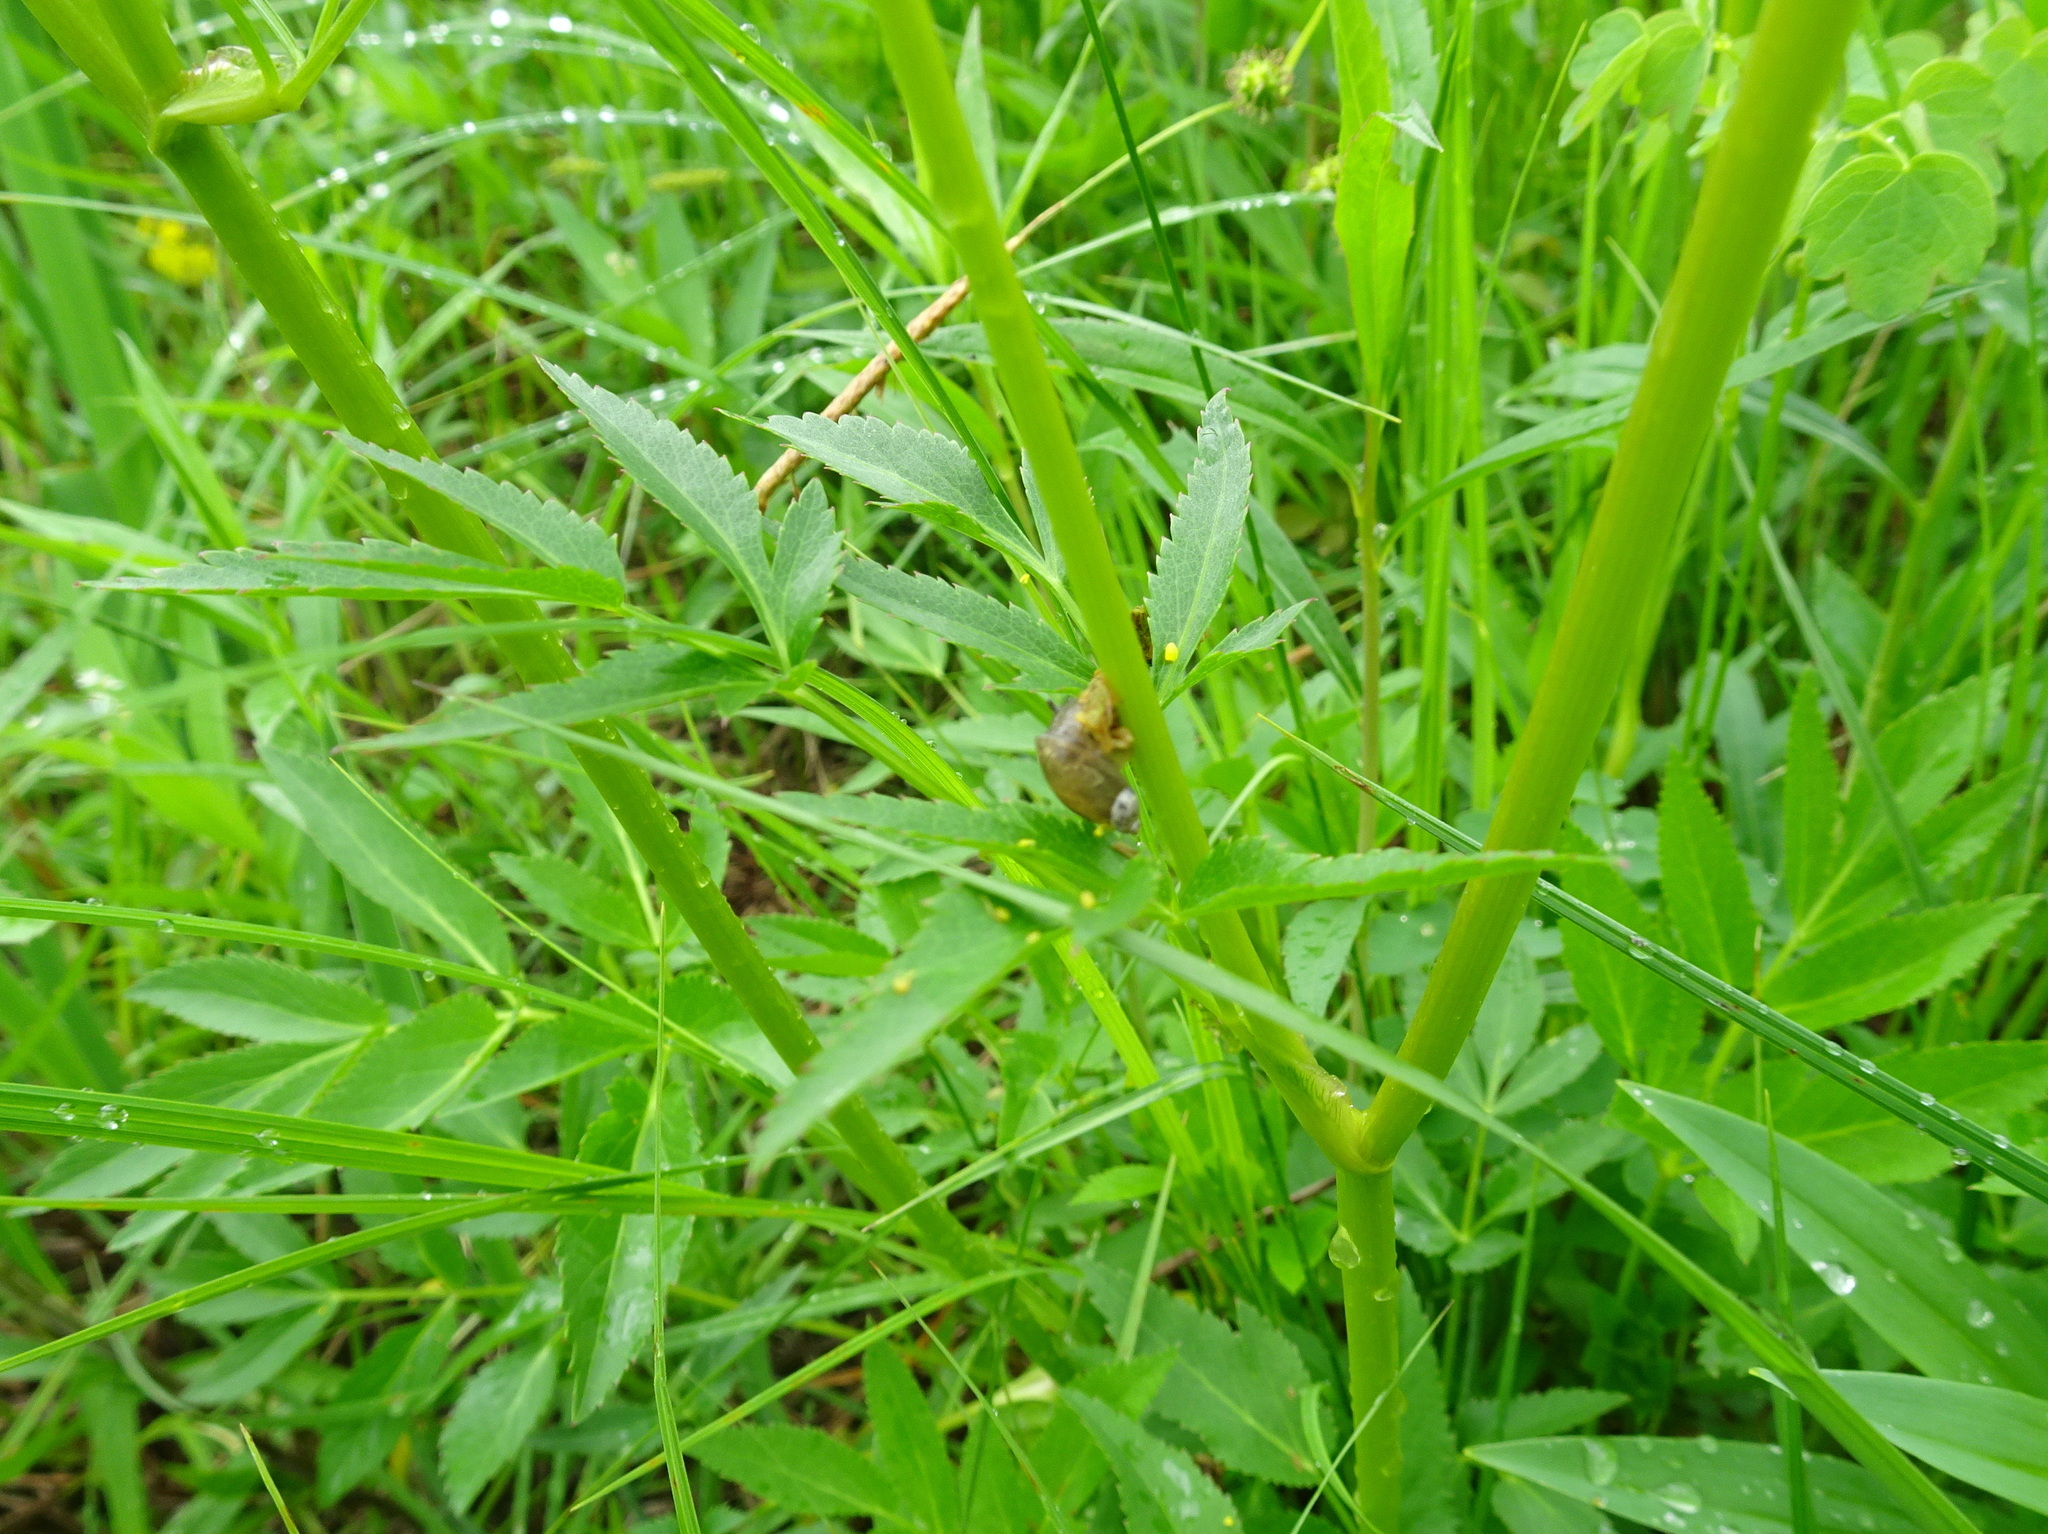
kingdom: Plantae
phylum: Tracheophyta
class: Magnoliopsida
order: Apiales
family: Apiaceae
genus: Zizia
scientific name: Zizia aurea
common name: Golden alexanders
